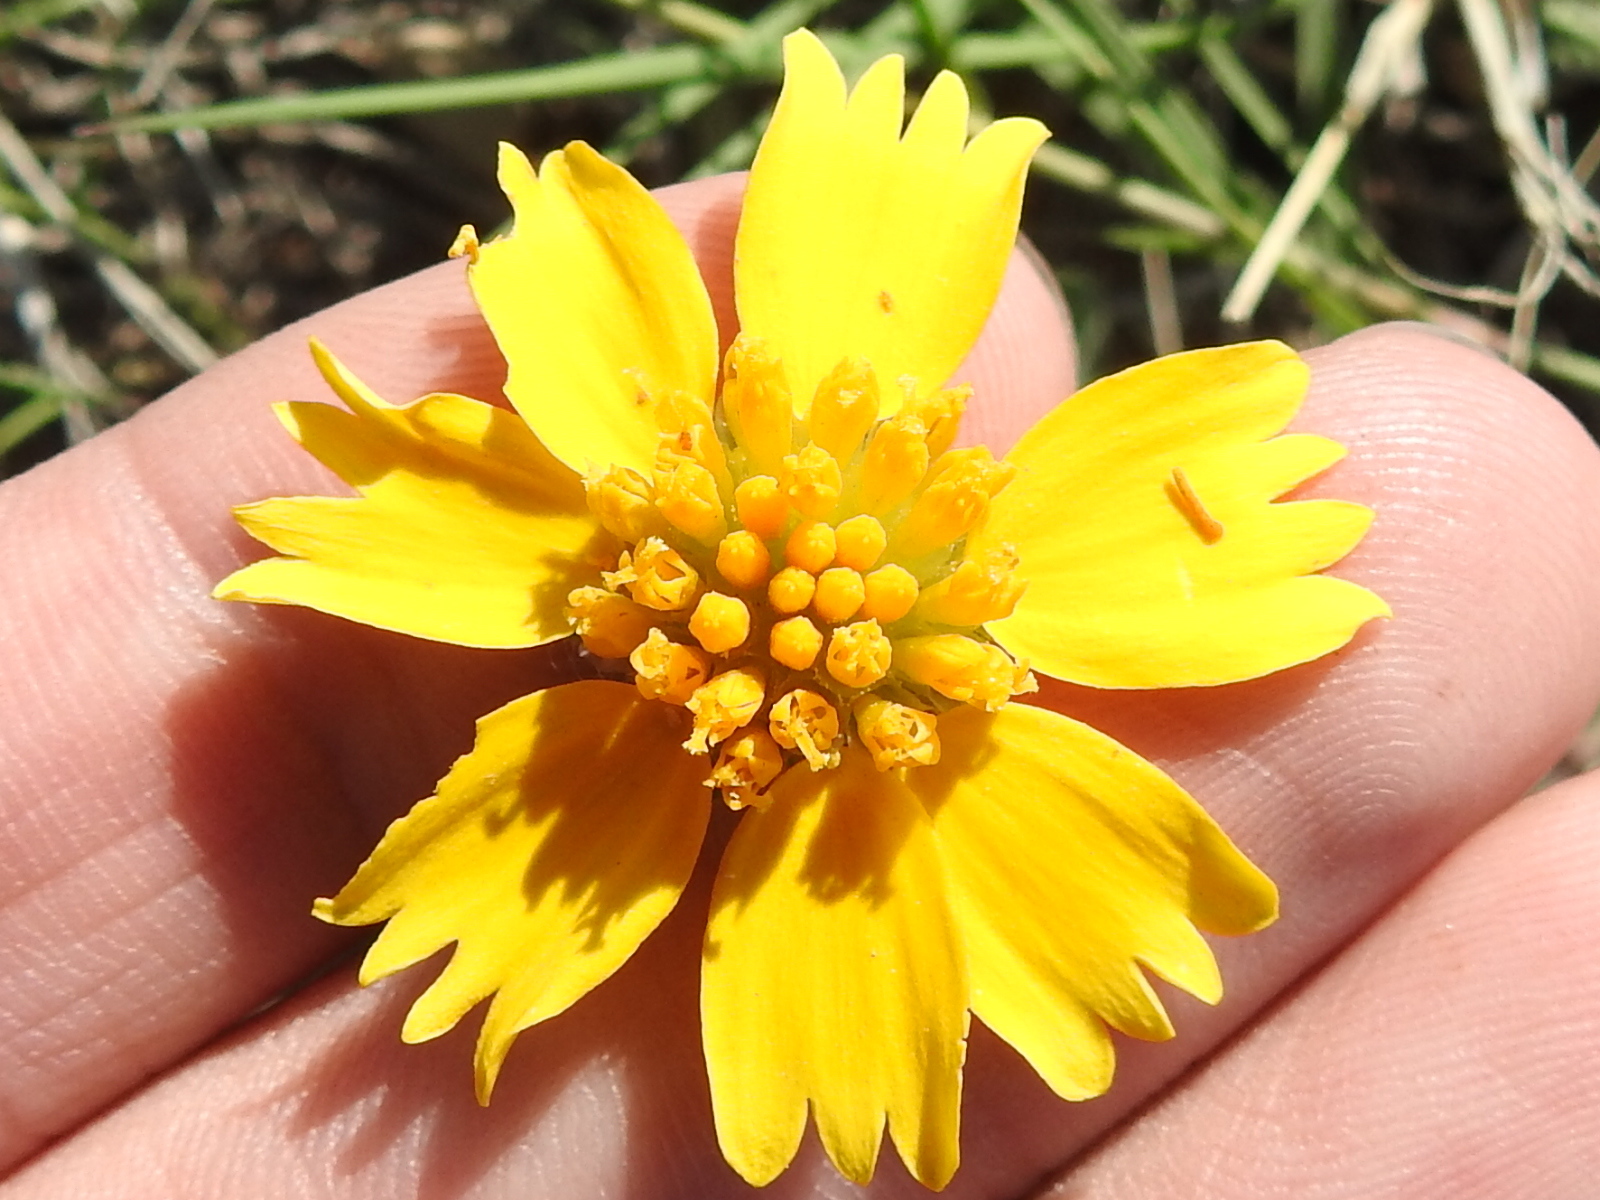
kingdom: Plantae
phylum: Tracheophyta
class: Magnoliopsida
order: Asterales
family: Asteraceae
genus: Amblyolepis
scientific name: Amblyolepis setigera
